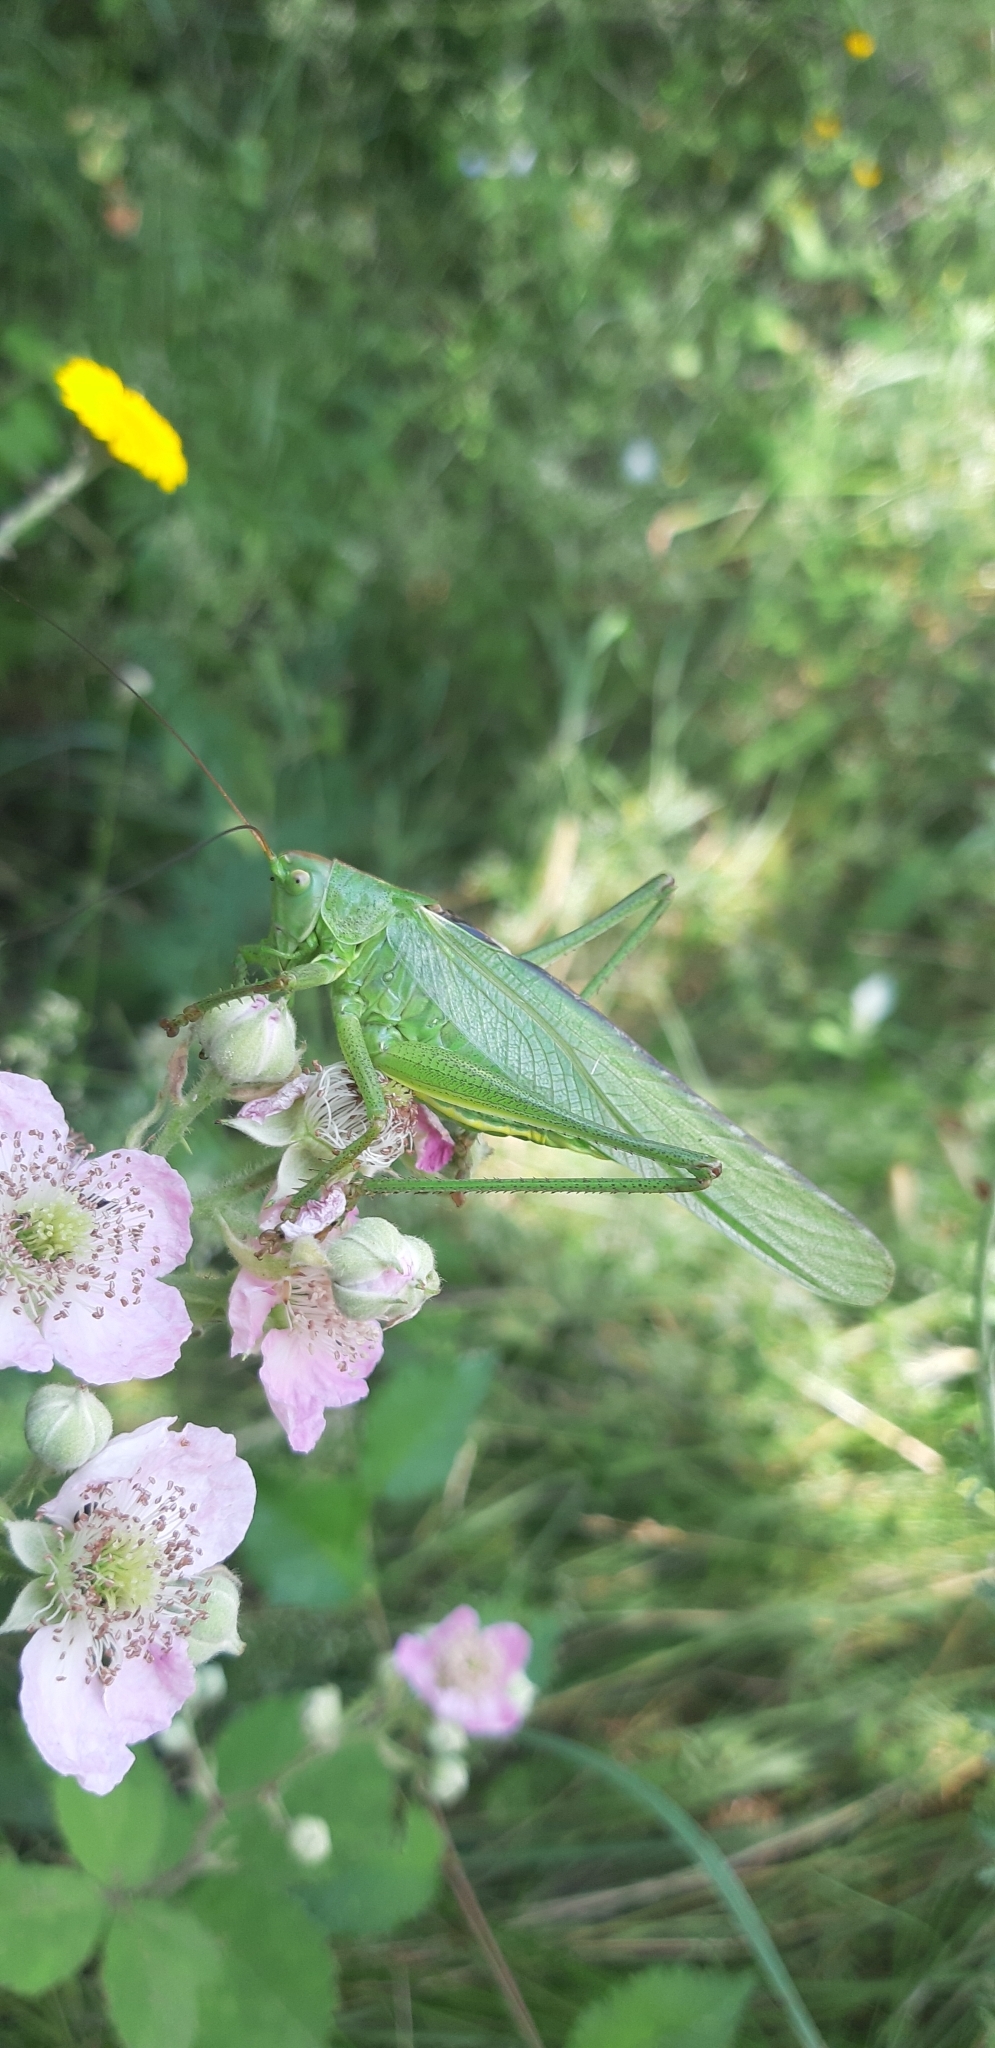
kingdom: Animalia
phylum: Arthropoda
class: Insecta
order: Orthoptera
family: Tettigoniidae
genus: Tettigonia
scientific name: Tettigonia viridissima
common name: Great green bush-cricket
